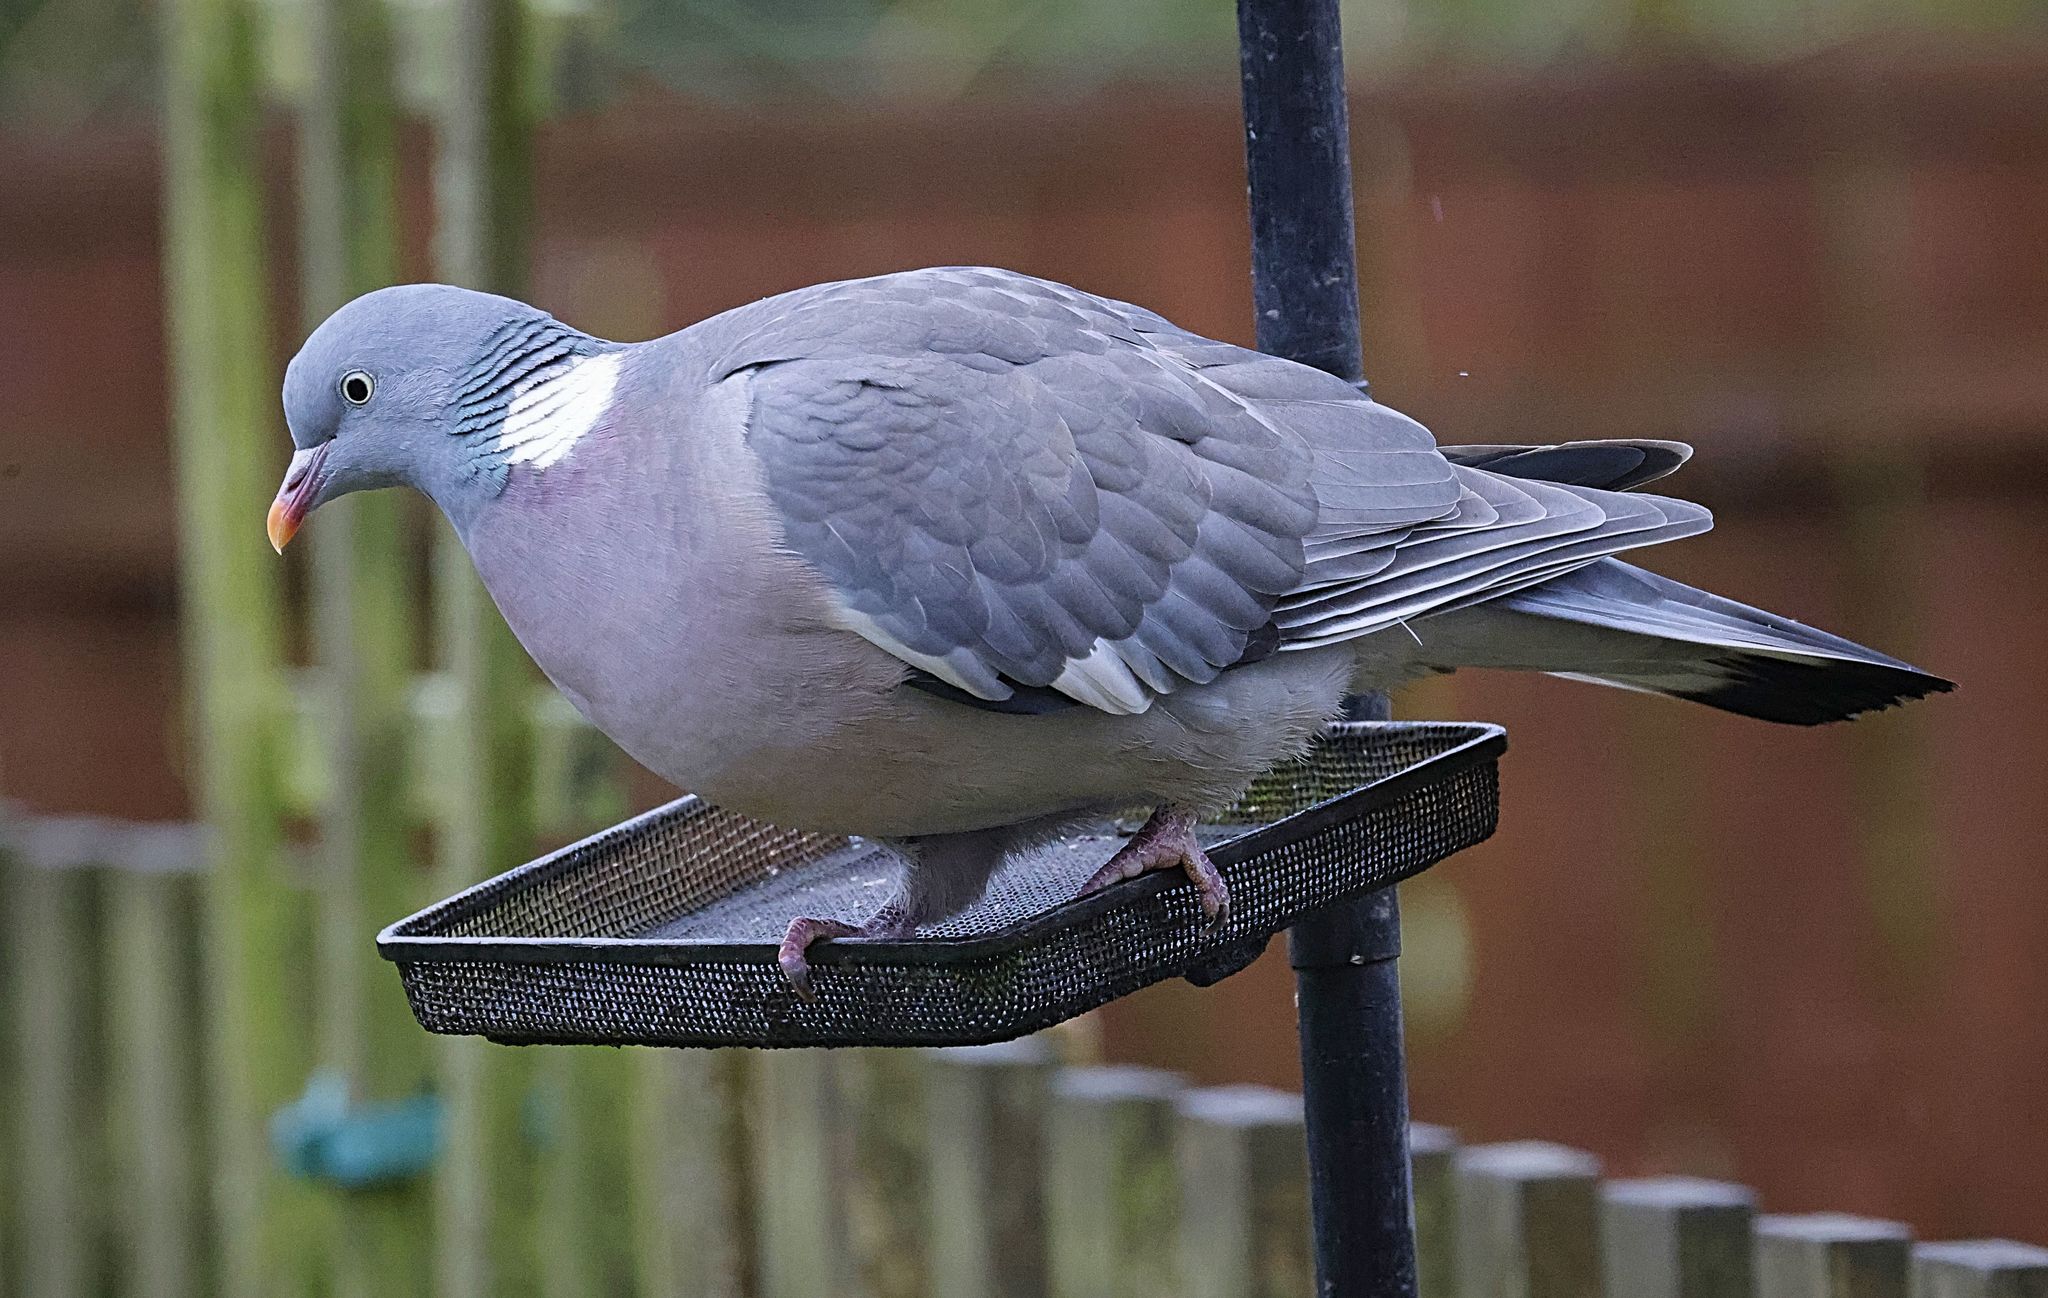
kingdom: Animalia
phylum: Chordata
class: Aves
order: Columbiformes
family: Columbidae
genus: Columba
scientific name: Columba palumbus
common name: Common wood pigeon
